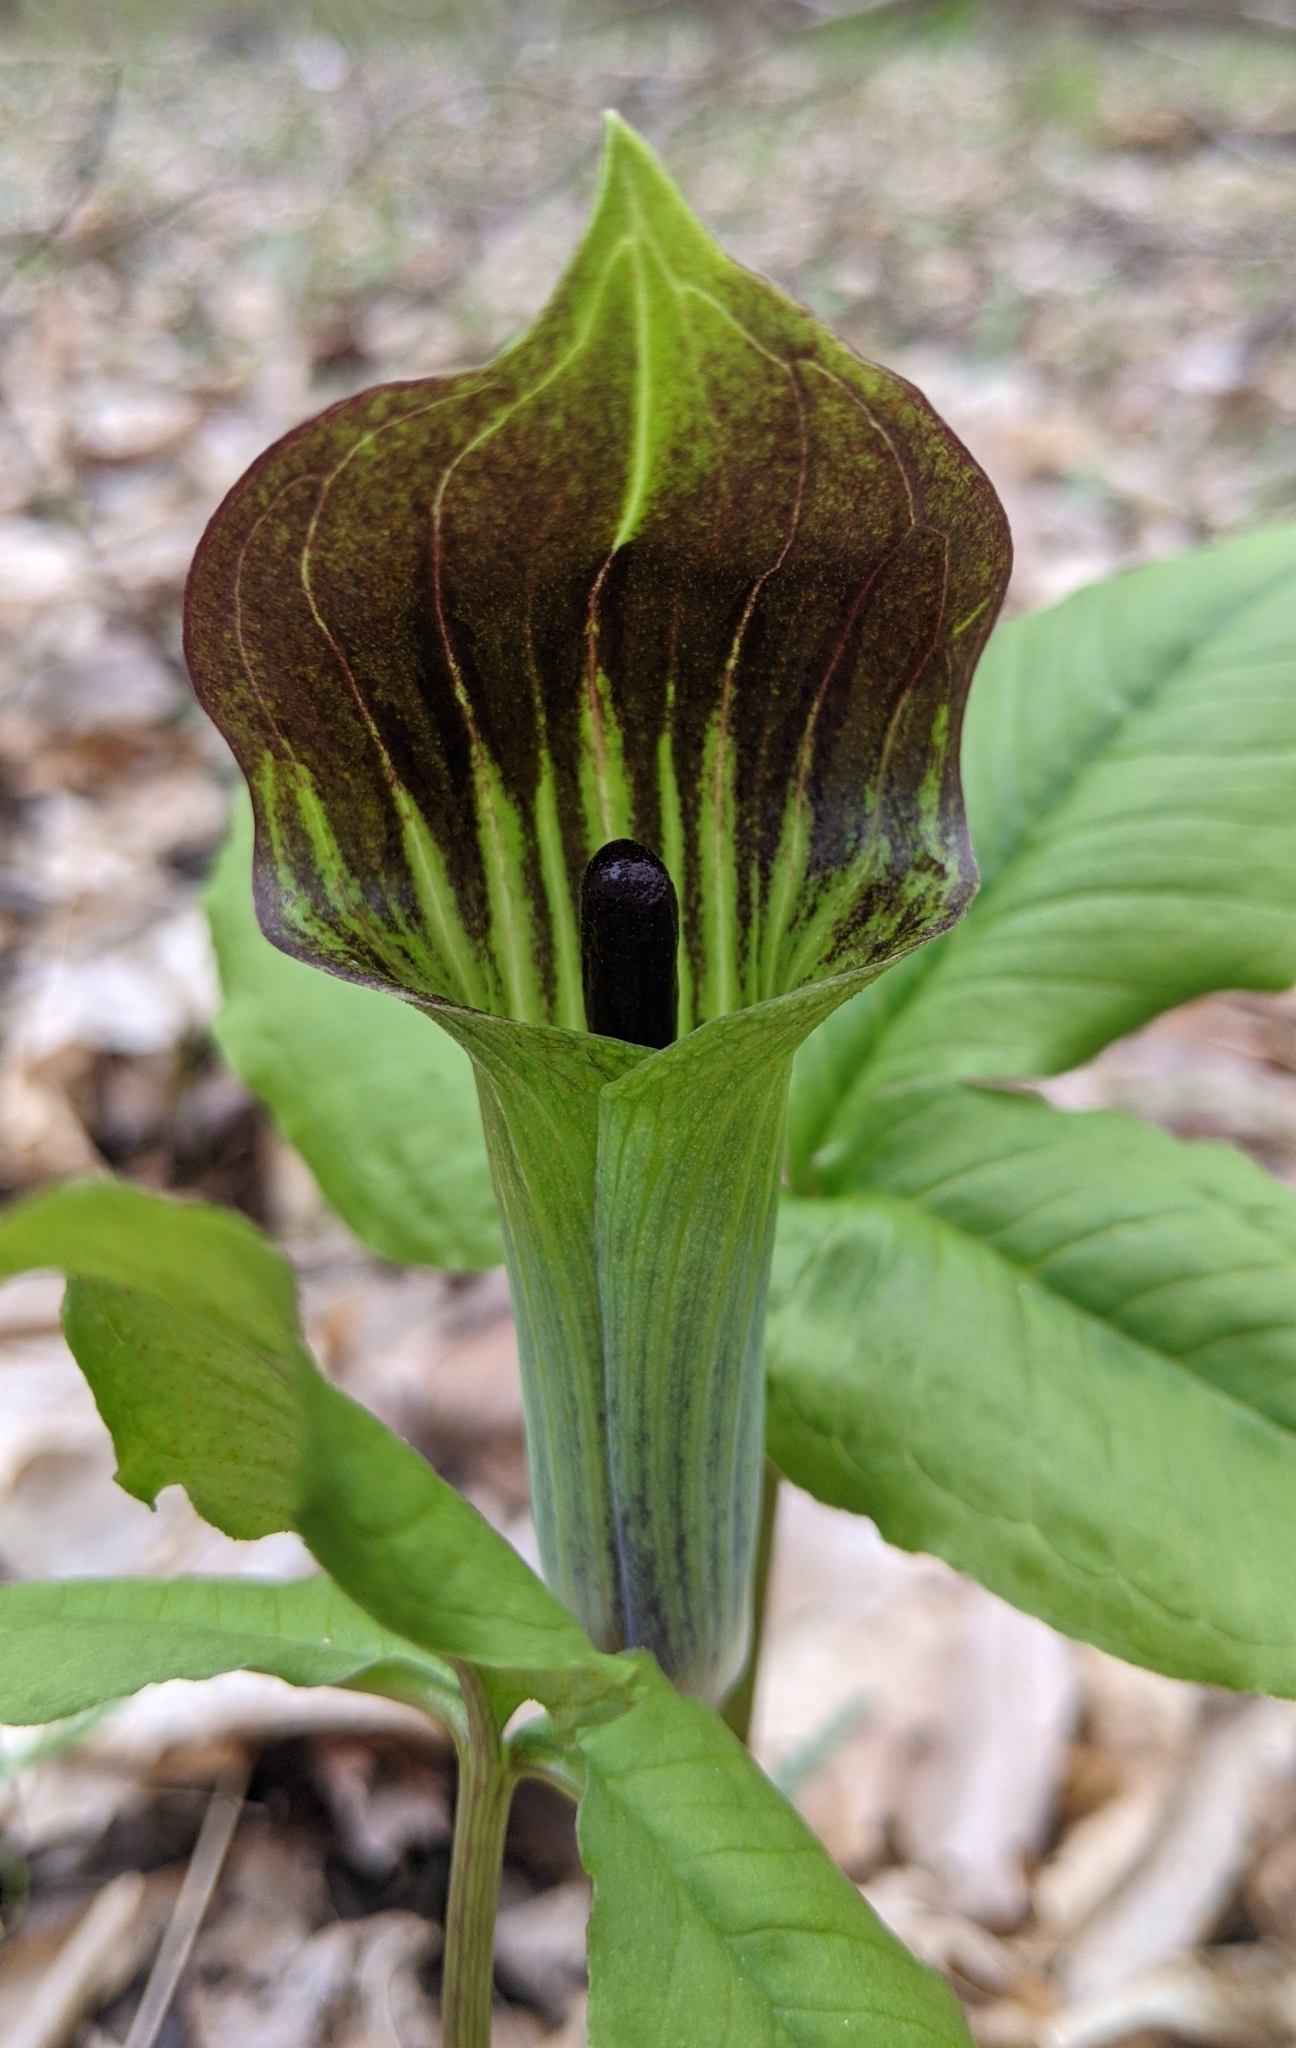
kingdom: Plantae
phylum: Tracheophyta
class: Liliopsida
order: Alismatales
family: Araceae
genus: Arisaema
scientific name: Arisaema triphyllum
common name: Jack-in-the-pulpit
